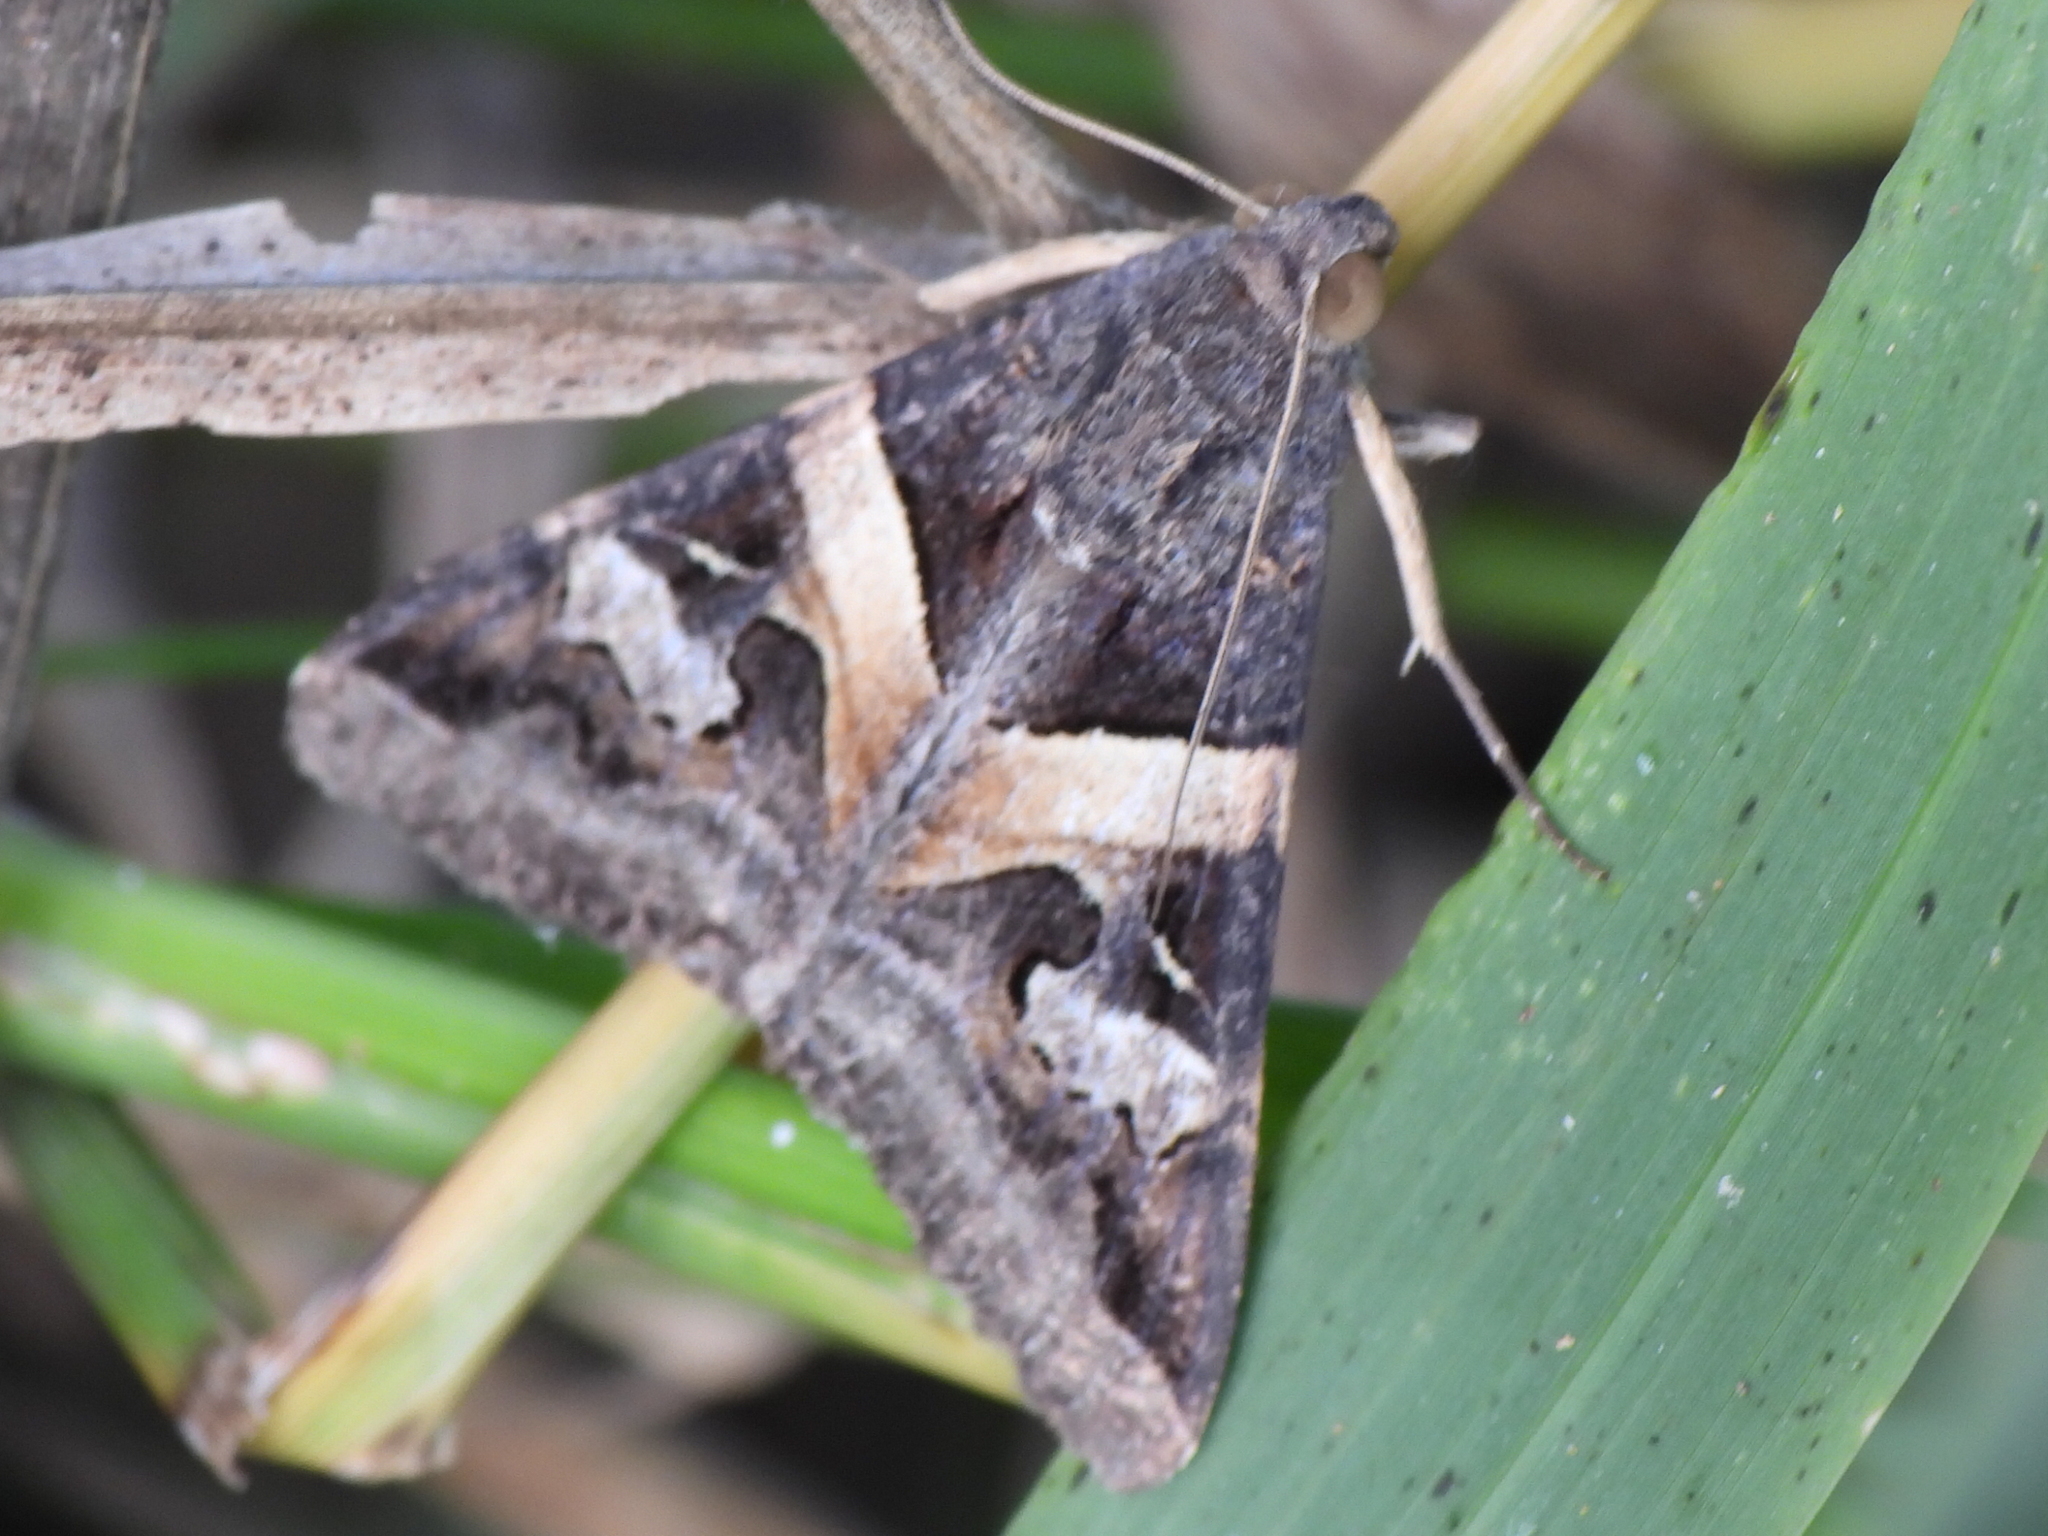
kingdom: Animalia
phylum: Arthropoda
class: Insecta
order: Lepidoptera
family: Erebidae
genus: Melipotis
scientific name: Melipotis indomita
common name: Moth
